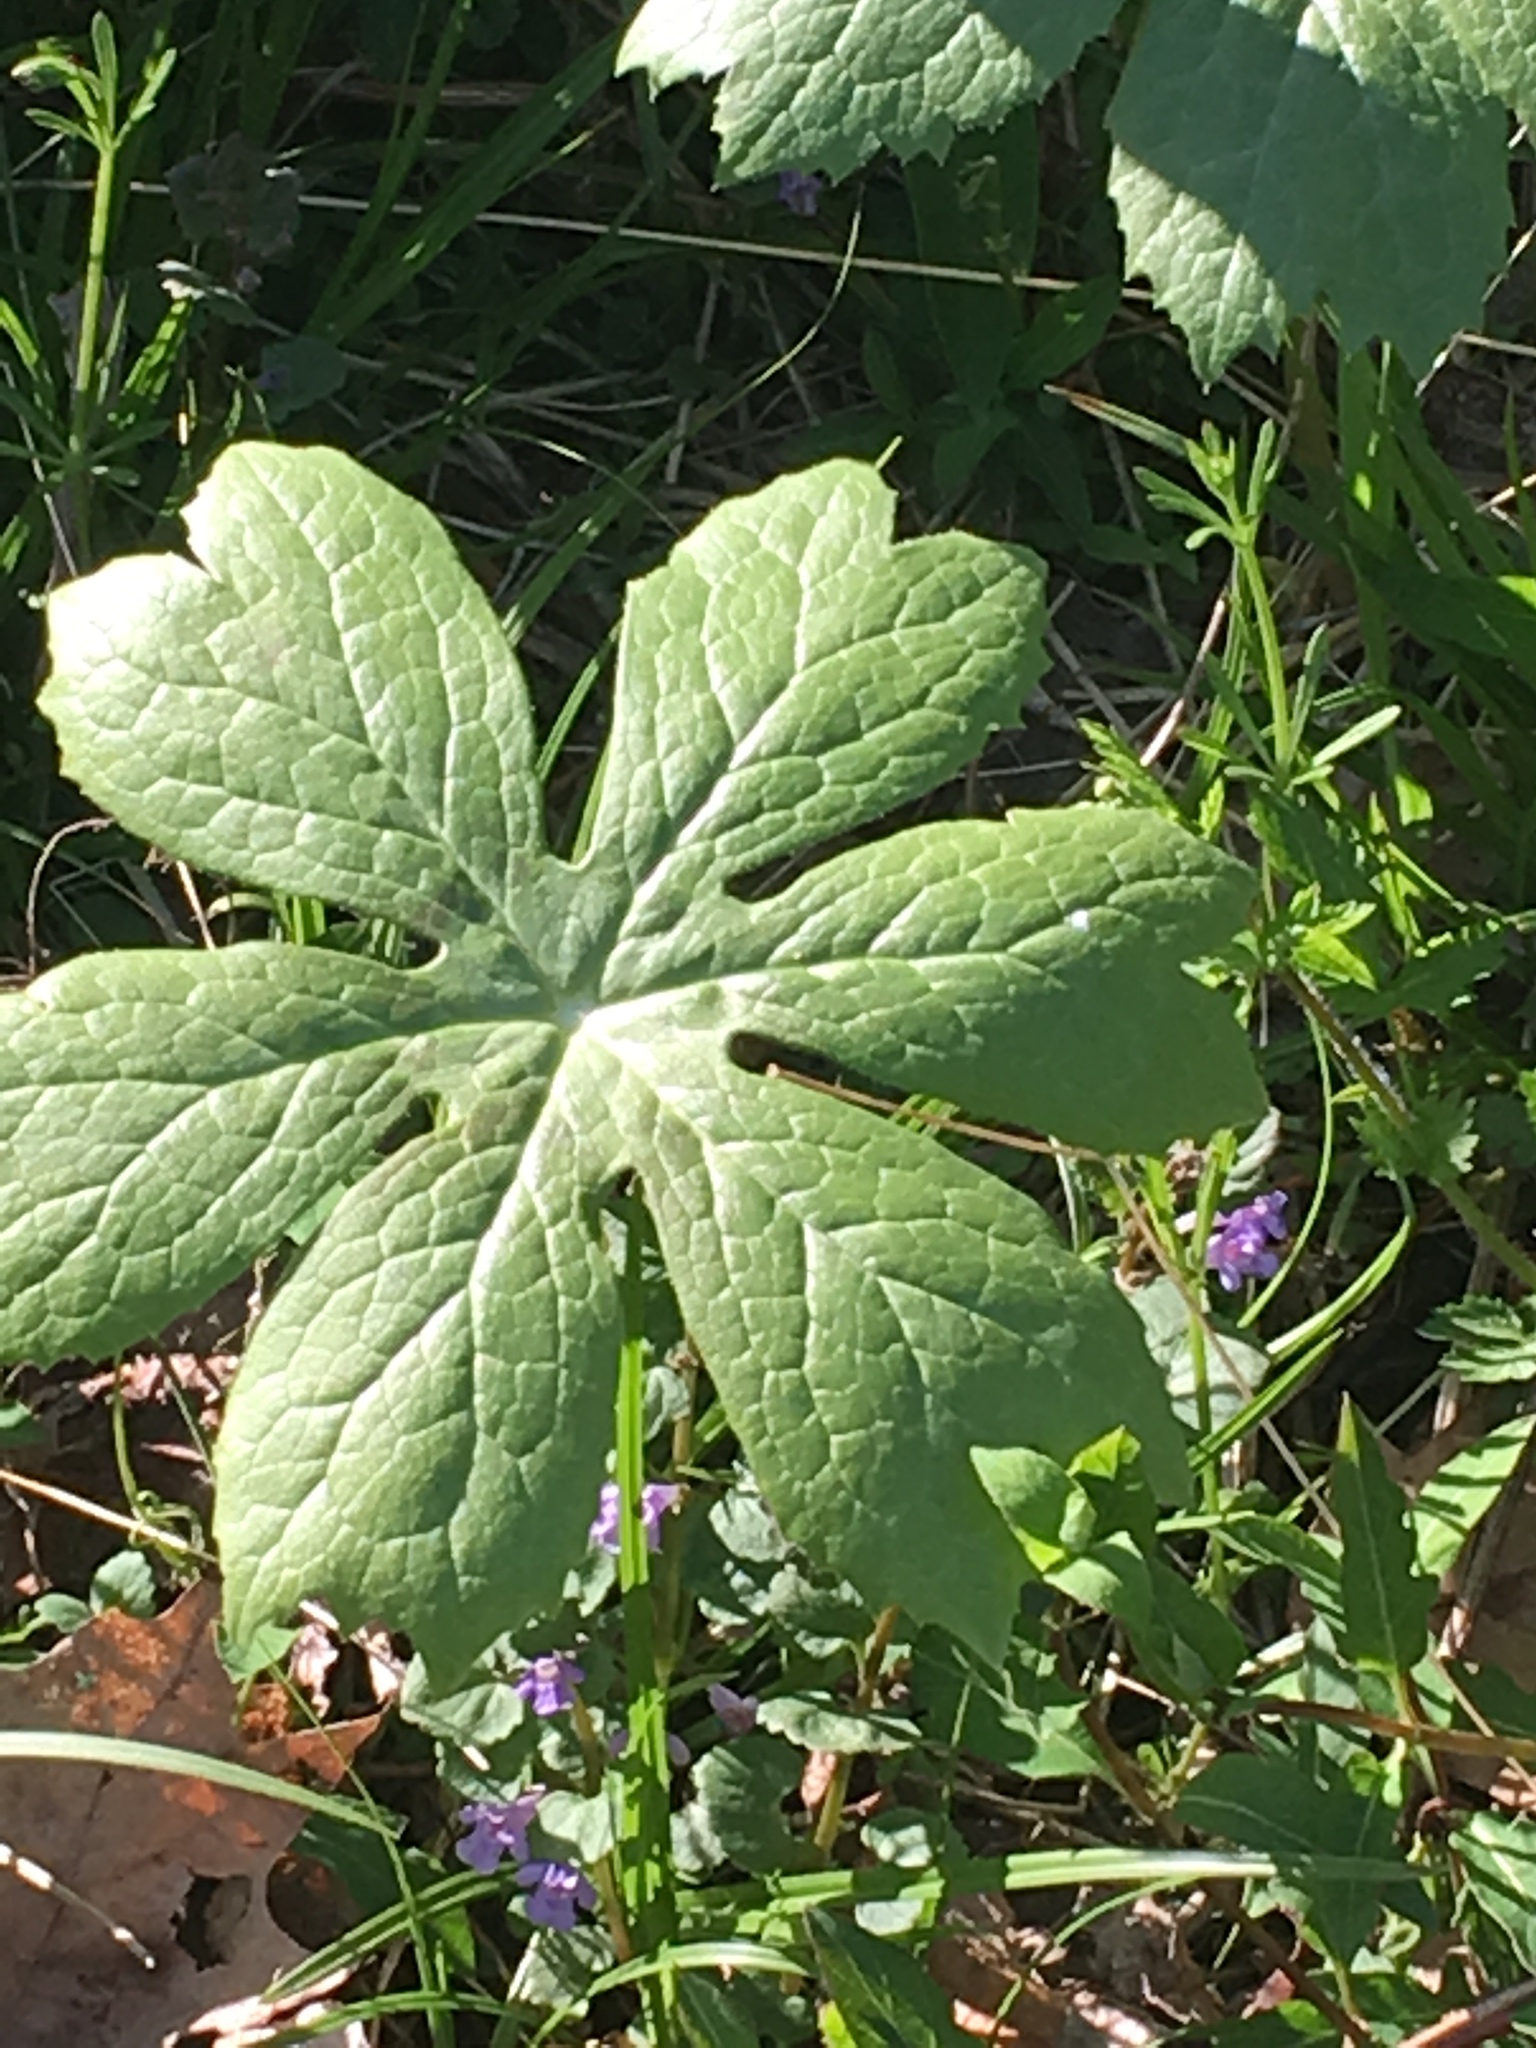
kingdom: Plantae
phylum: Tracheophyta
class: Magnoliopsida
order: Ranunculales
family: Berberidaceae
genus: Podophyllum
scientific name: Podophyllum peltatum
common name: Wild mandrake
